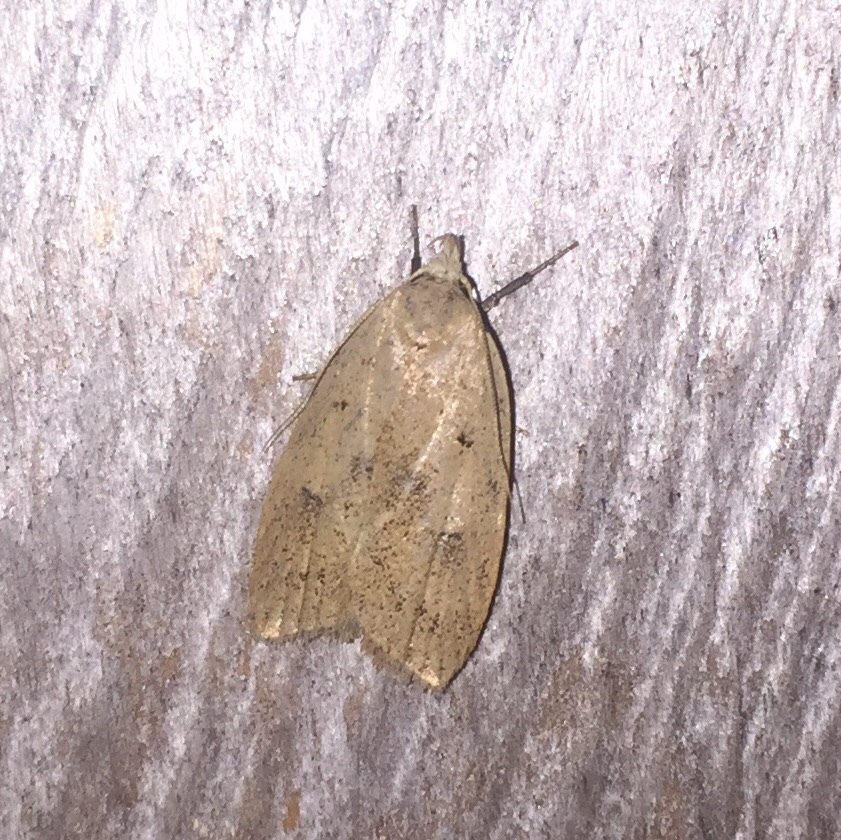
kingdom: Animalia
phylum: Arthropoda
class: Insecta
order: Lepidoptera
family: Peleopodidae
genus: Machimia
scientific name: Machimia tentoriferella
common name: Gold-striped leaftier moth
